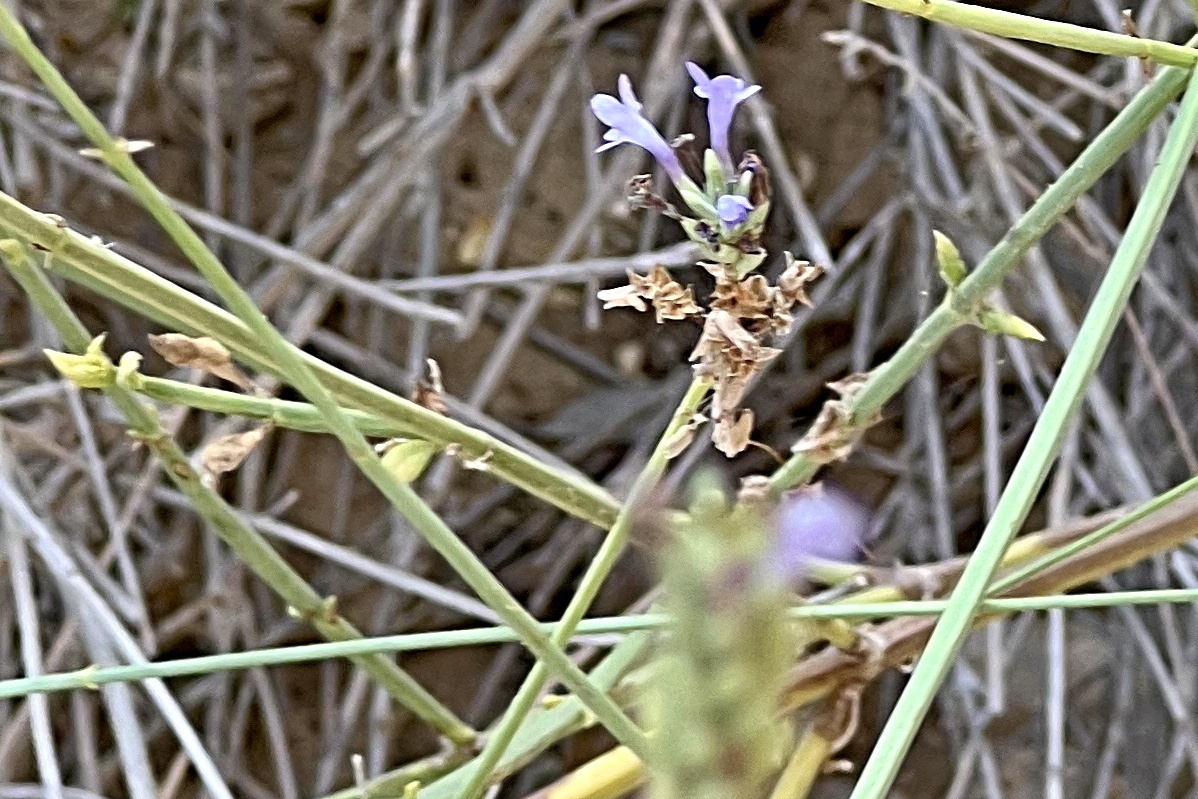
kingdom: Plantae
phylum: Tracheophyta
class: Magnoliopsida
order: Lamiales
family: Lamiaceae
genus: Lavandula
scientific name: Lavandula subnuda
